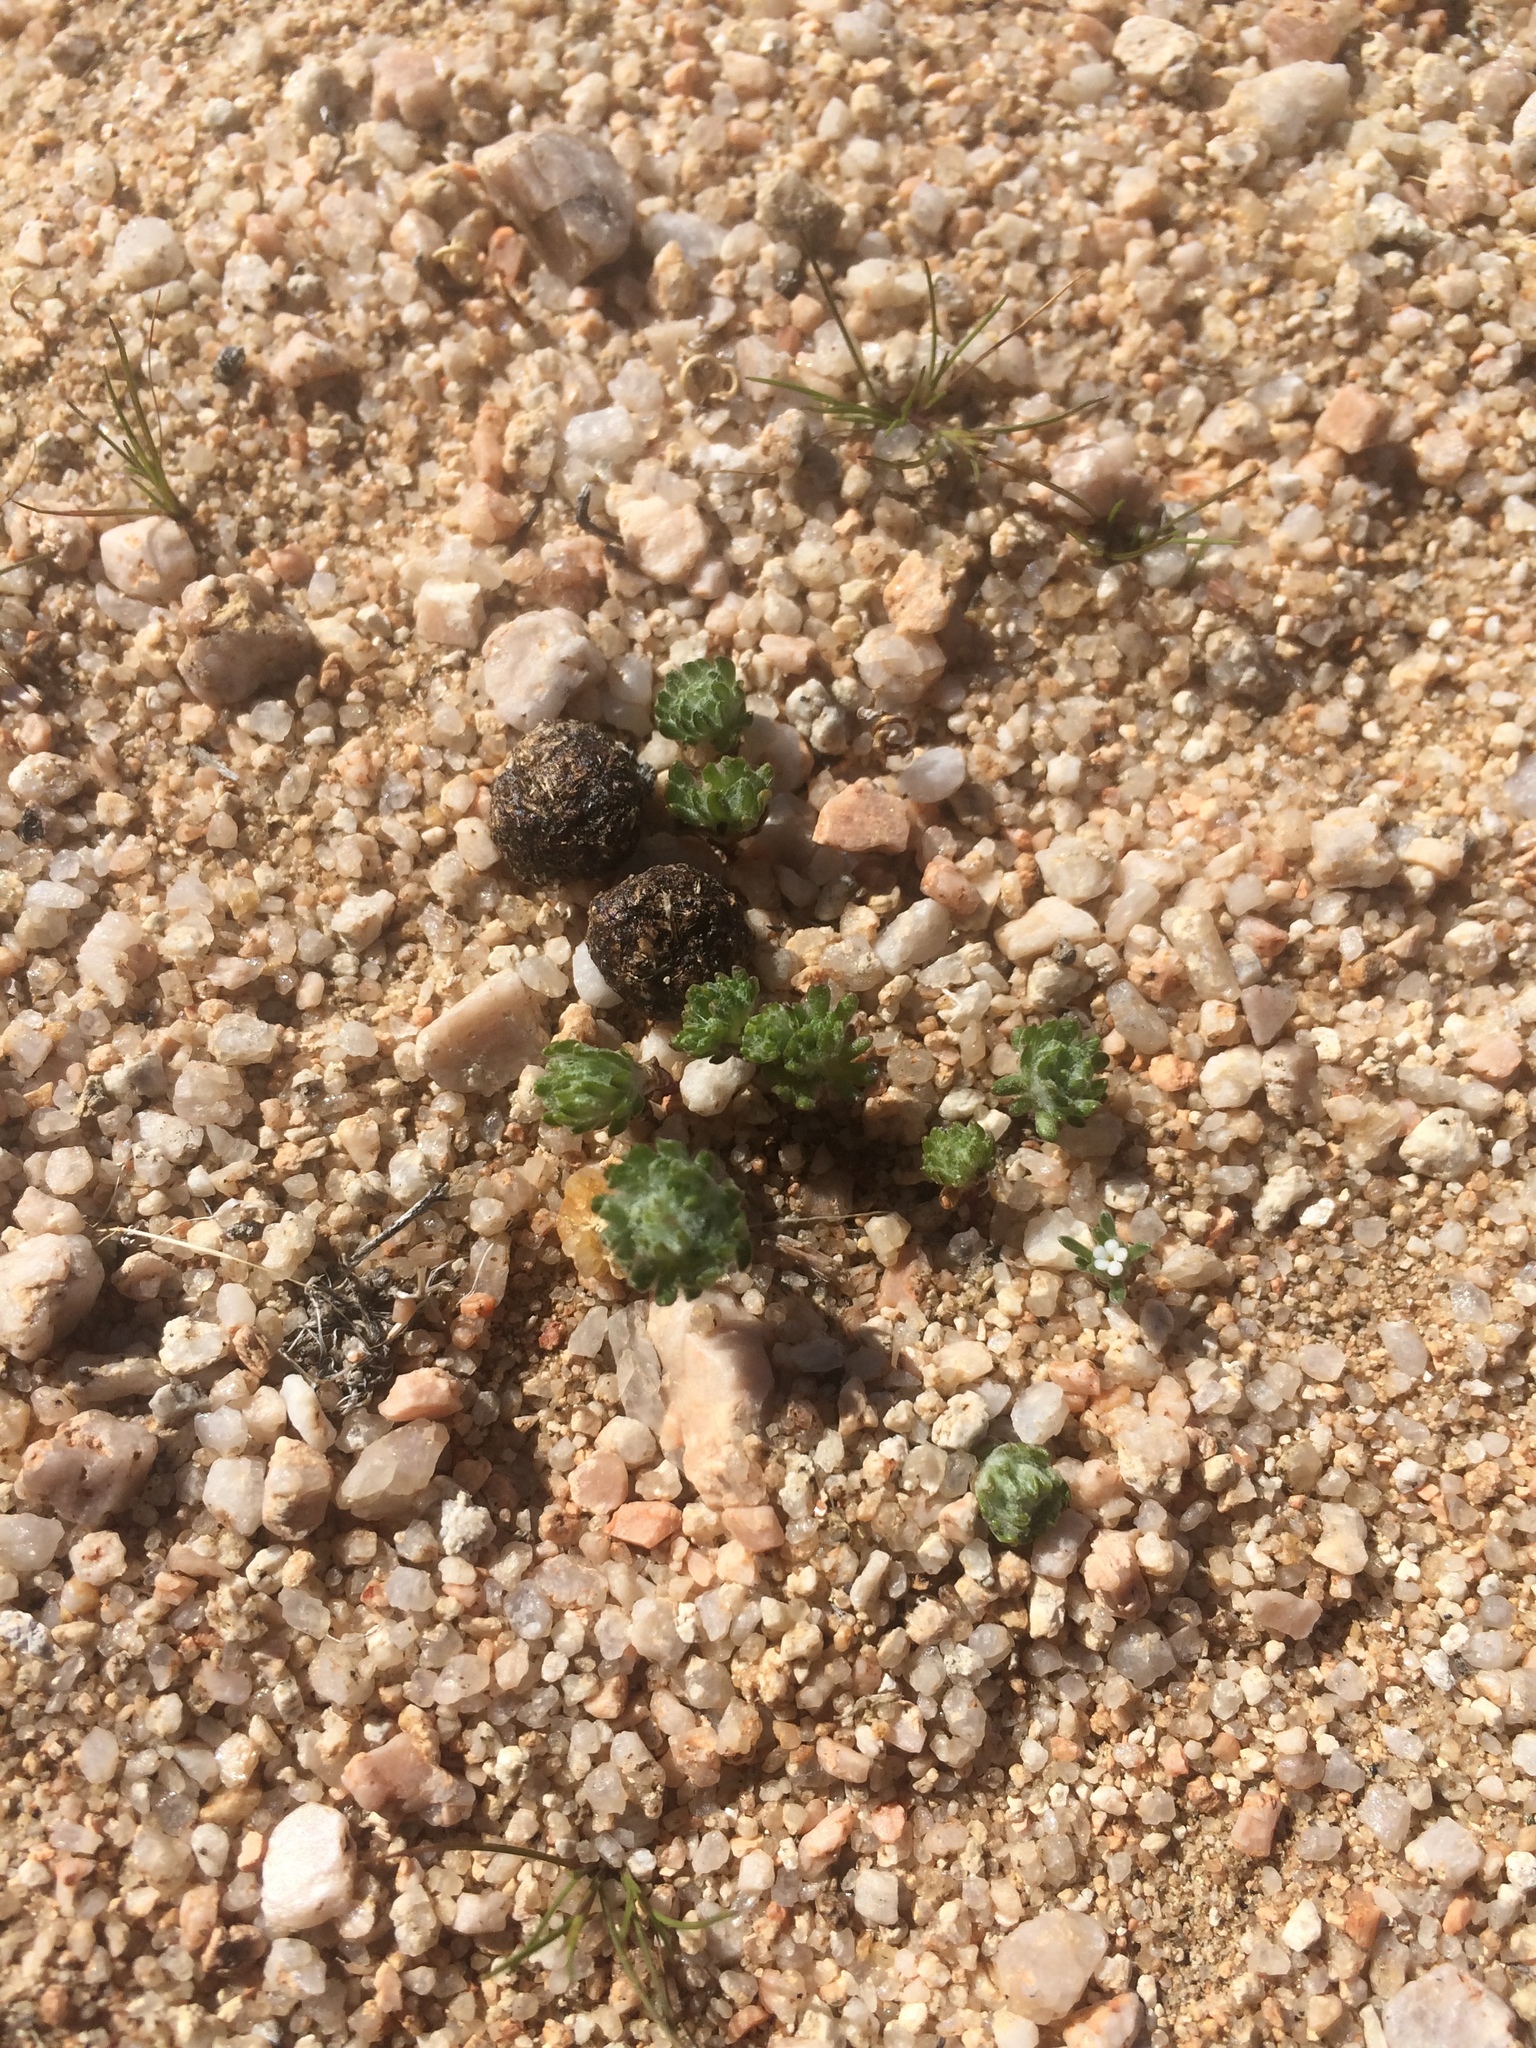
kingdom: Plantae
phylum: Tracheophyta
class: Magnoliopsida
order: Asterales
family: Asteraceae
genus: Eriophyllum
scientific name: Eriophyllum pringlei
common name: Pringle's woolly-sunflower
